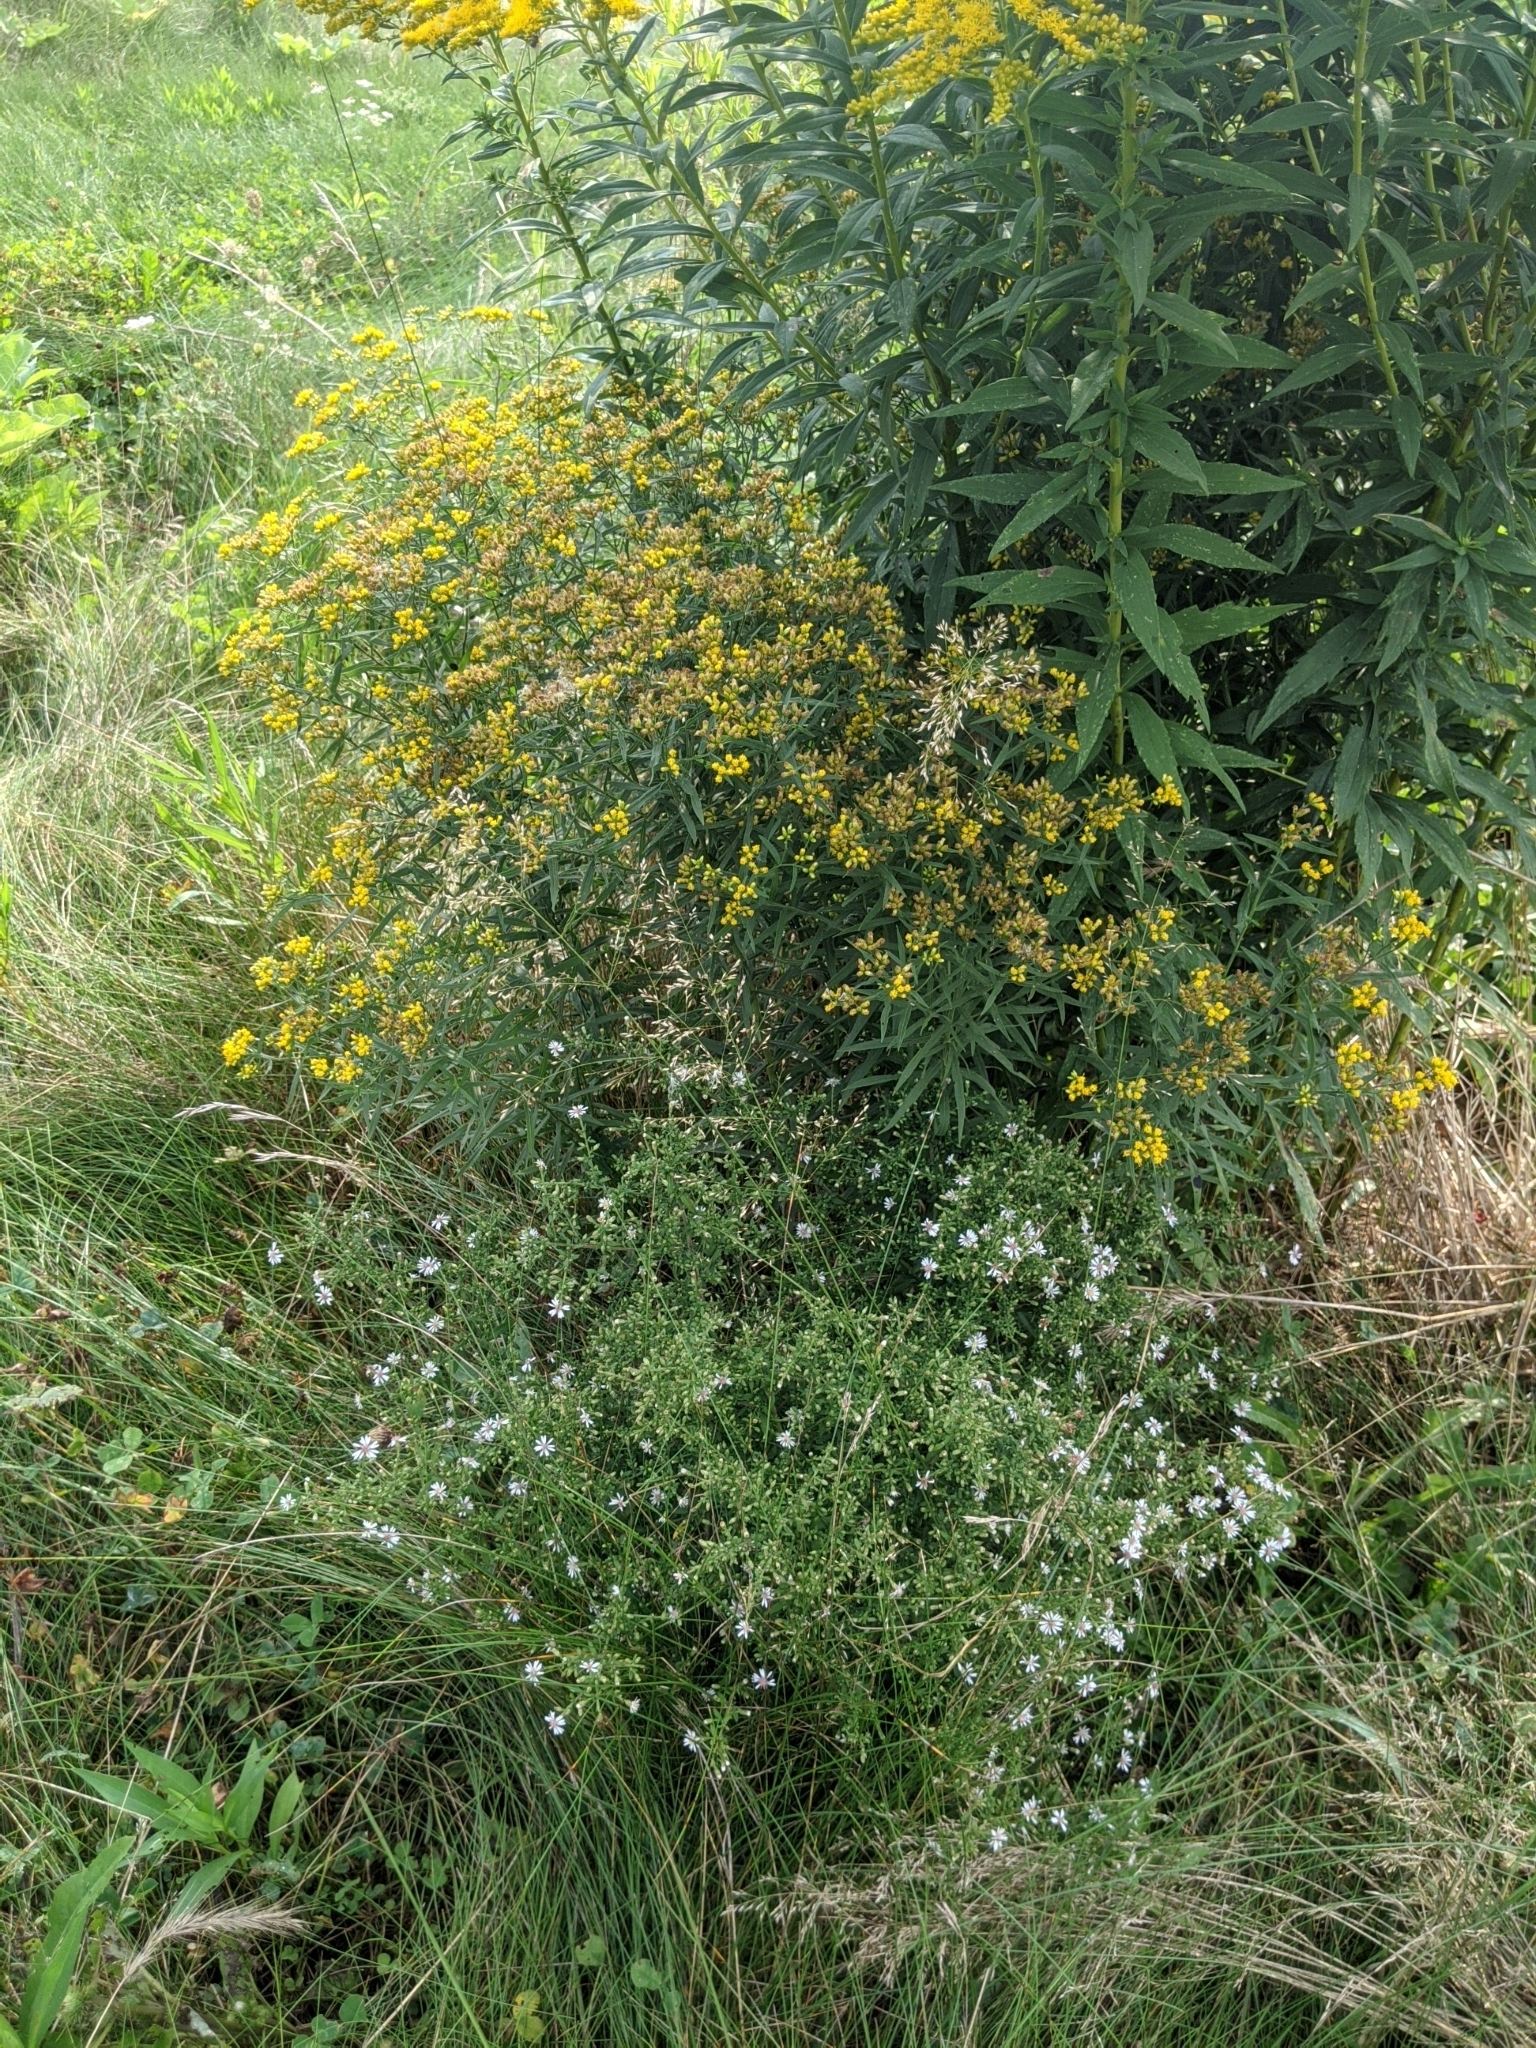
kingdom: Plantae
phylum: Tracheophyta
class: Magnoliopsida
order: Asterales
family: Asteraceae
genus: Tanacetum
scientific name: Tanacetum vulgare
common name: Common tansy
